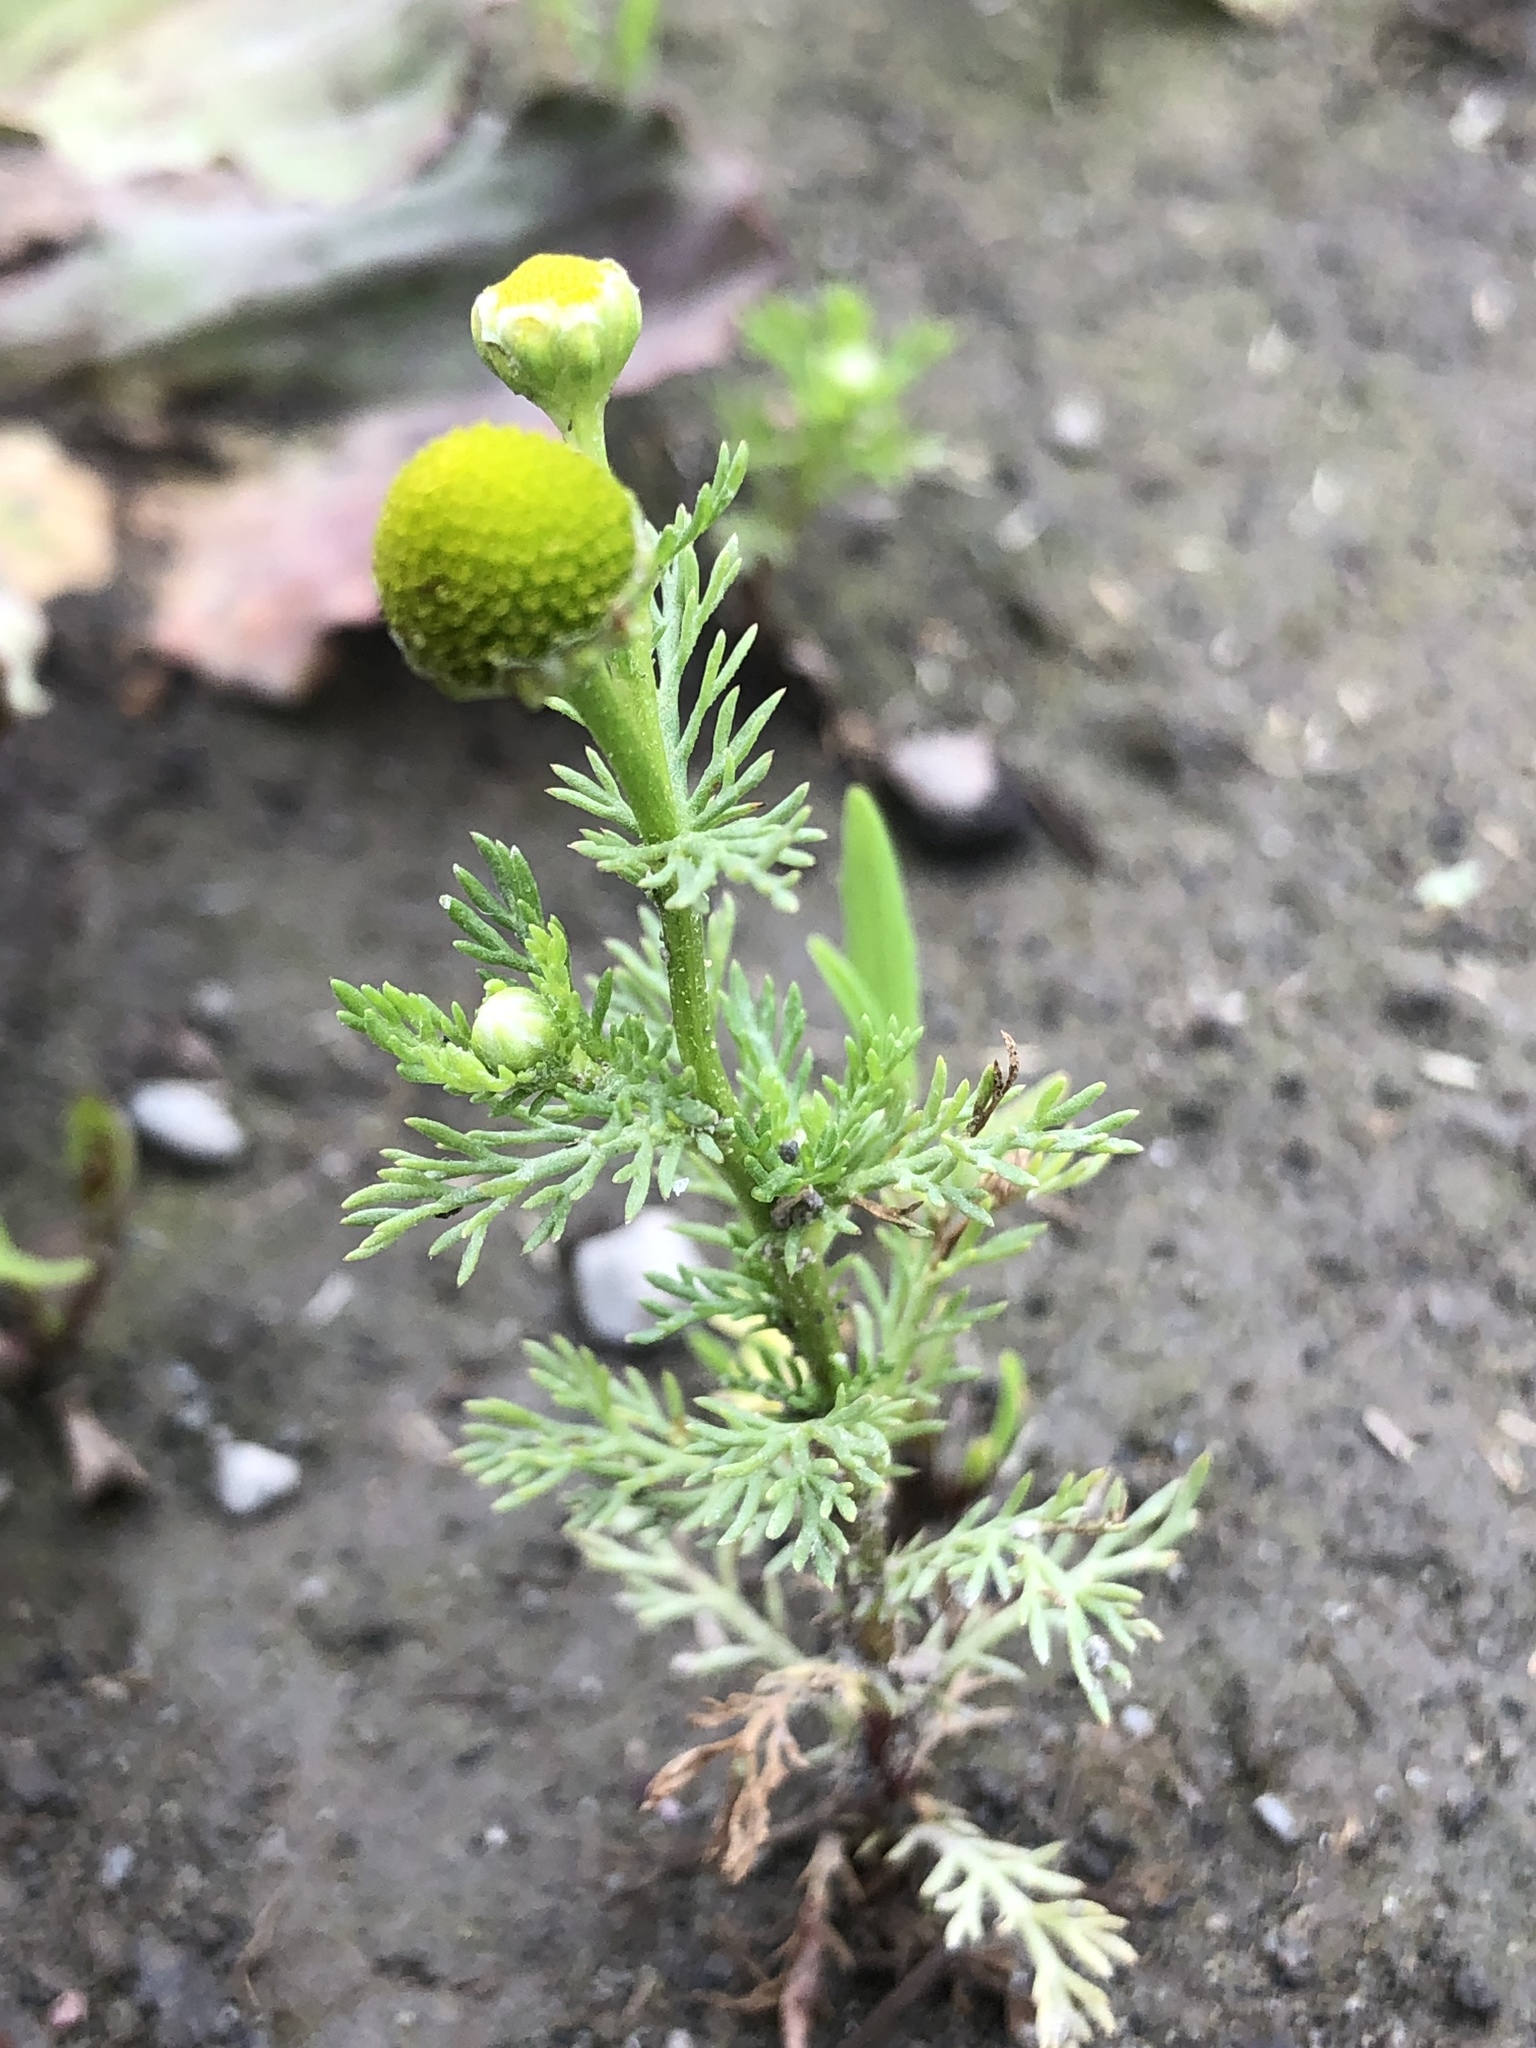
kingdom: Plantae
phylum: Tracheophyta
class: Magnoliopsida
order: Asterales
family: Asteraceae
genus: Matricaria
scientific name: Matricaria discoidea
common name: Disc mayweed
